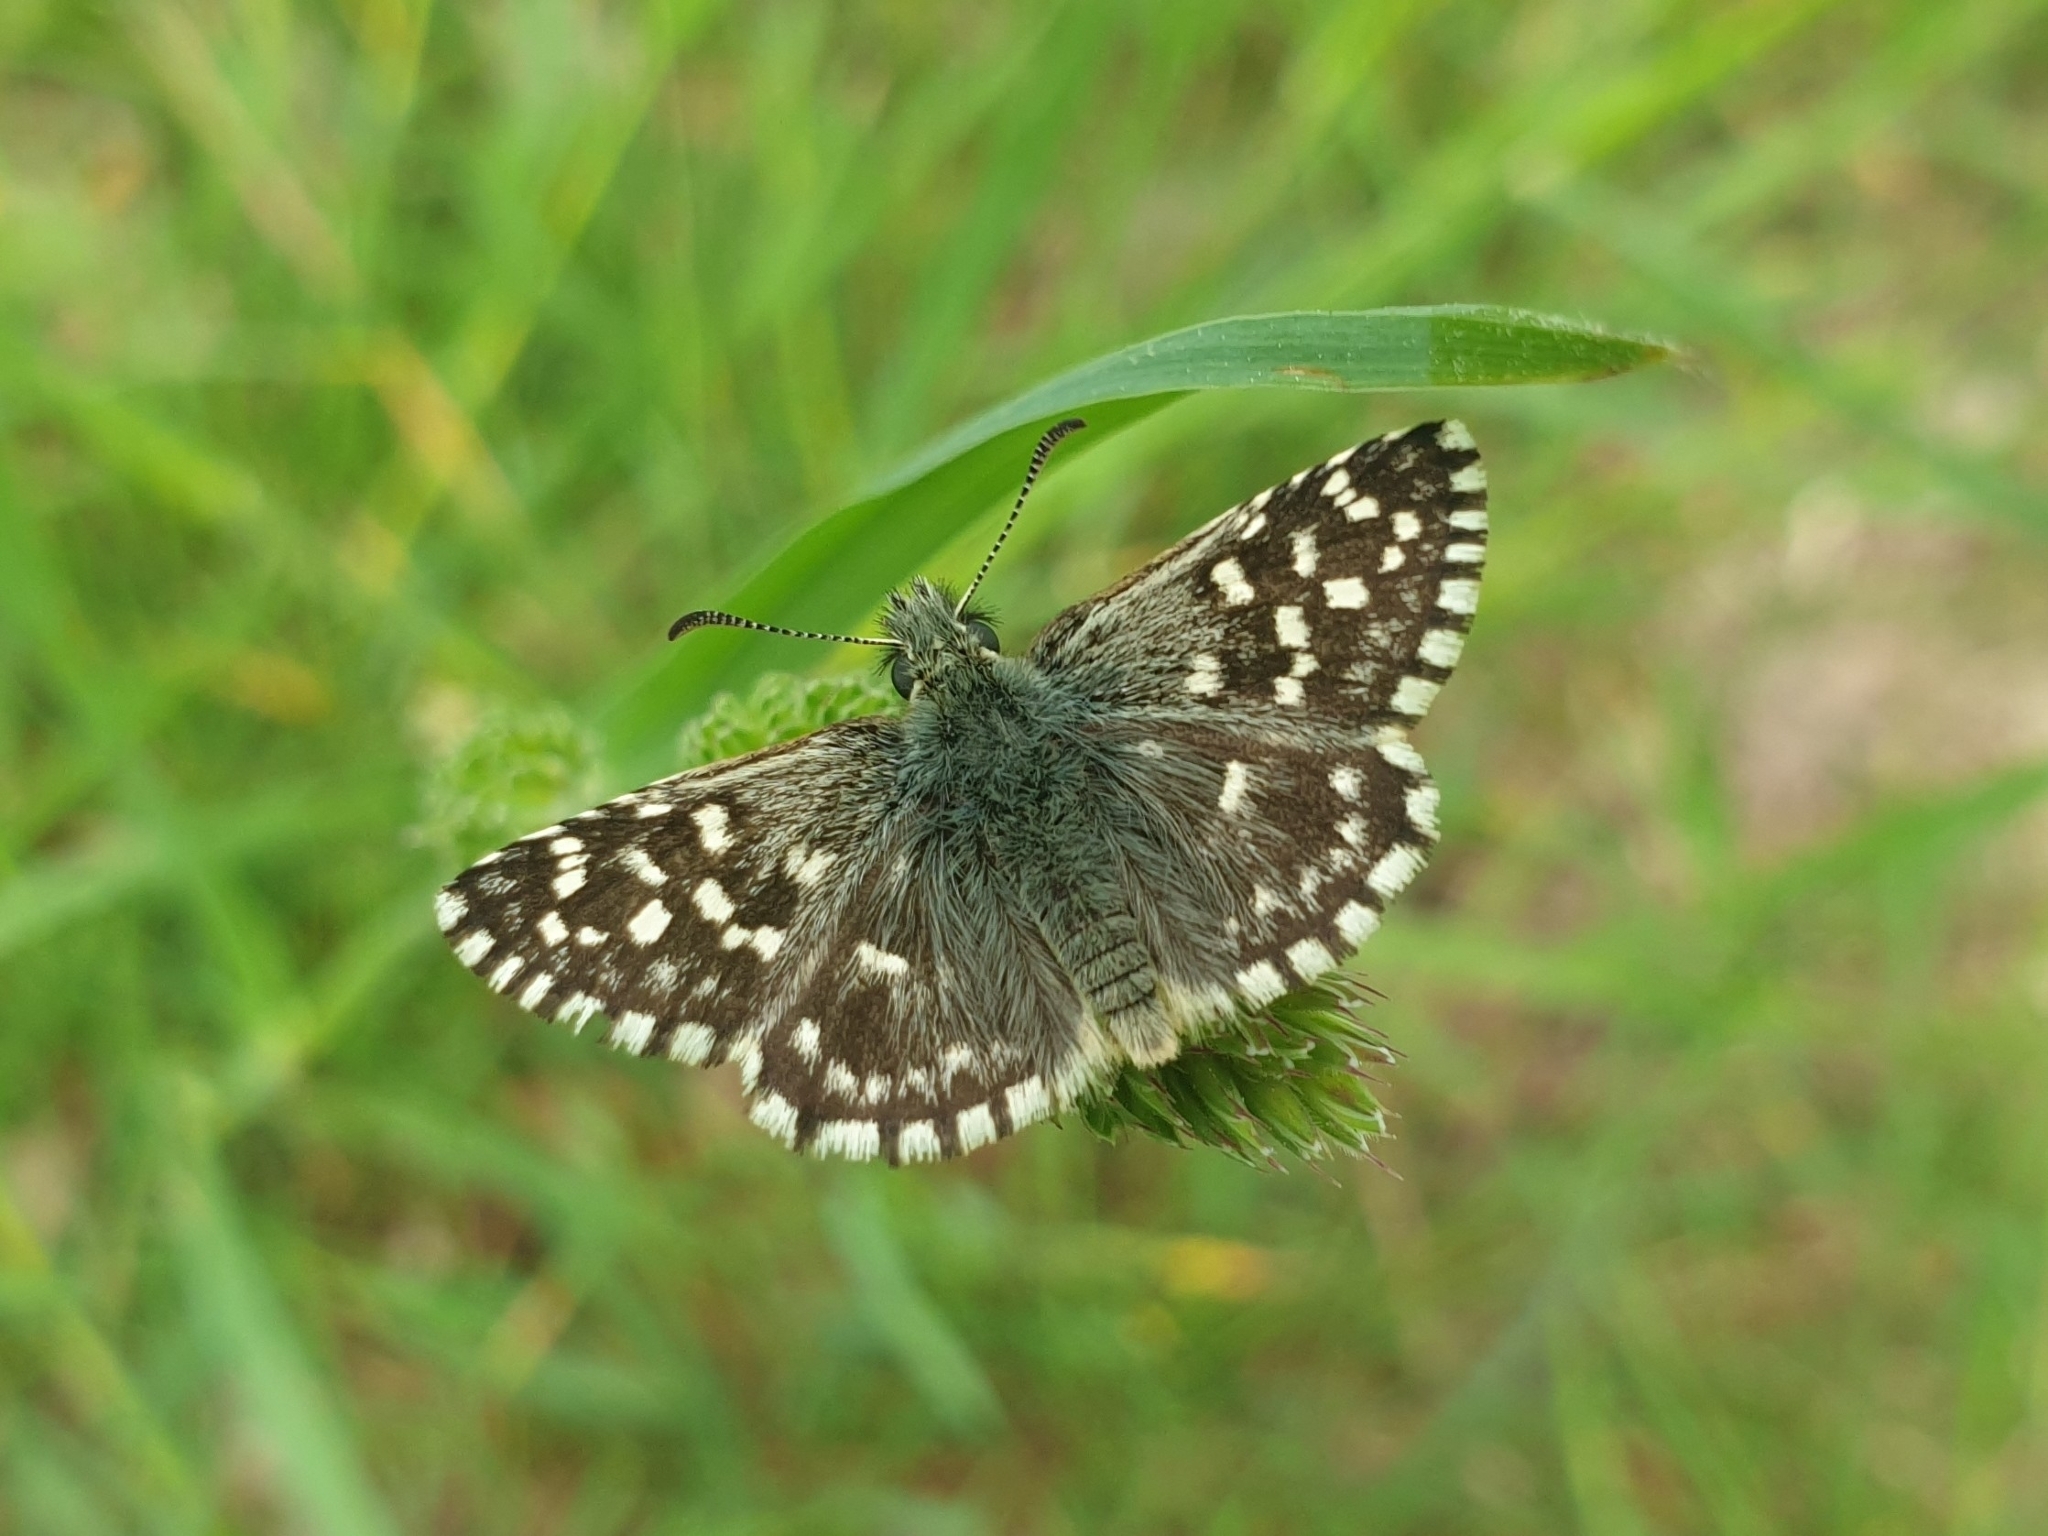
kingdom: Animalia
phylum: Arthropoda
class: Insecta
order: Lepidoptera
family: Hesperiidae
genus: Pyrgus
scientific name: Pyrgus malvae
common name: Grizzled skipper
